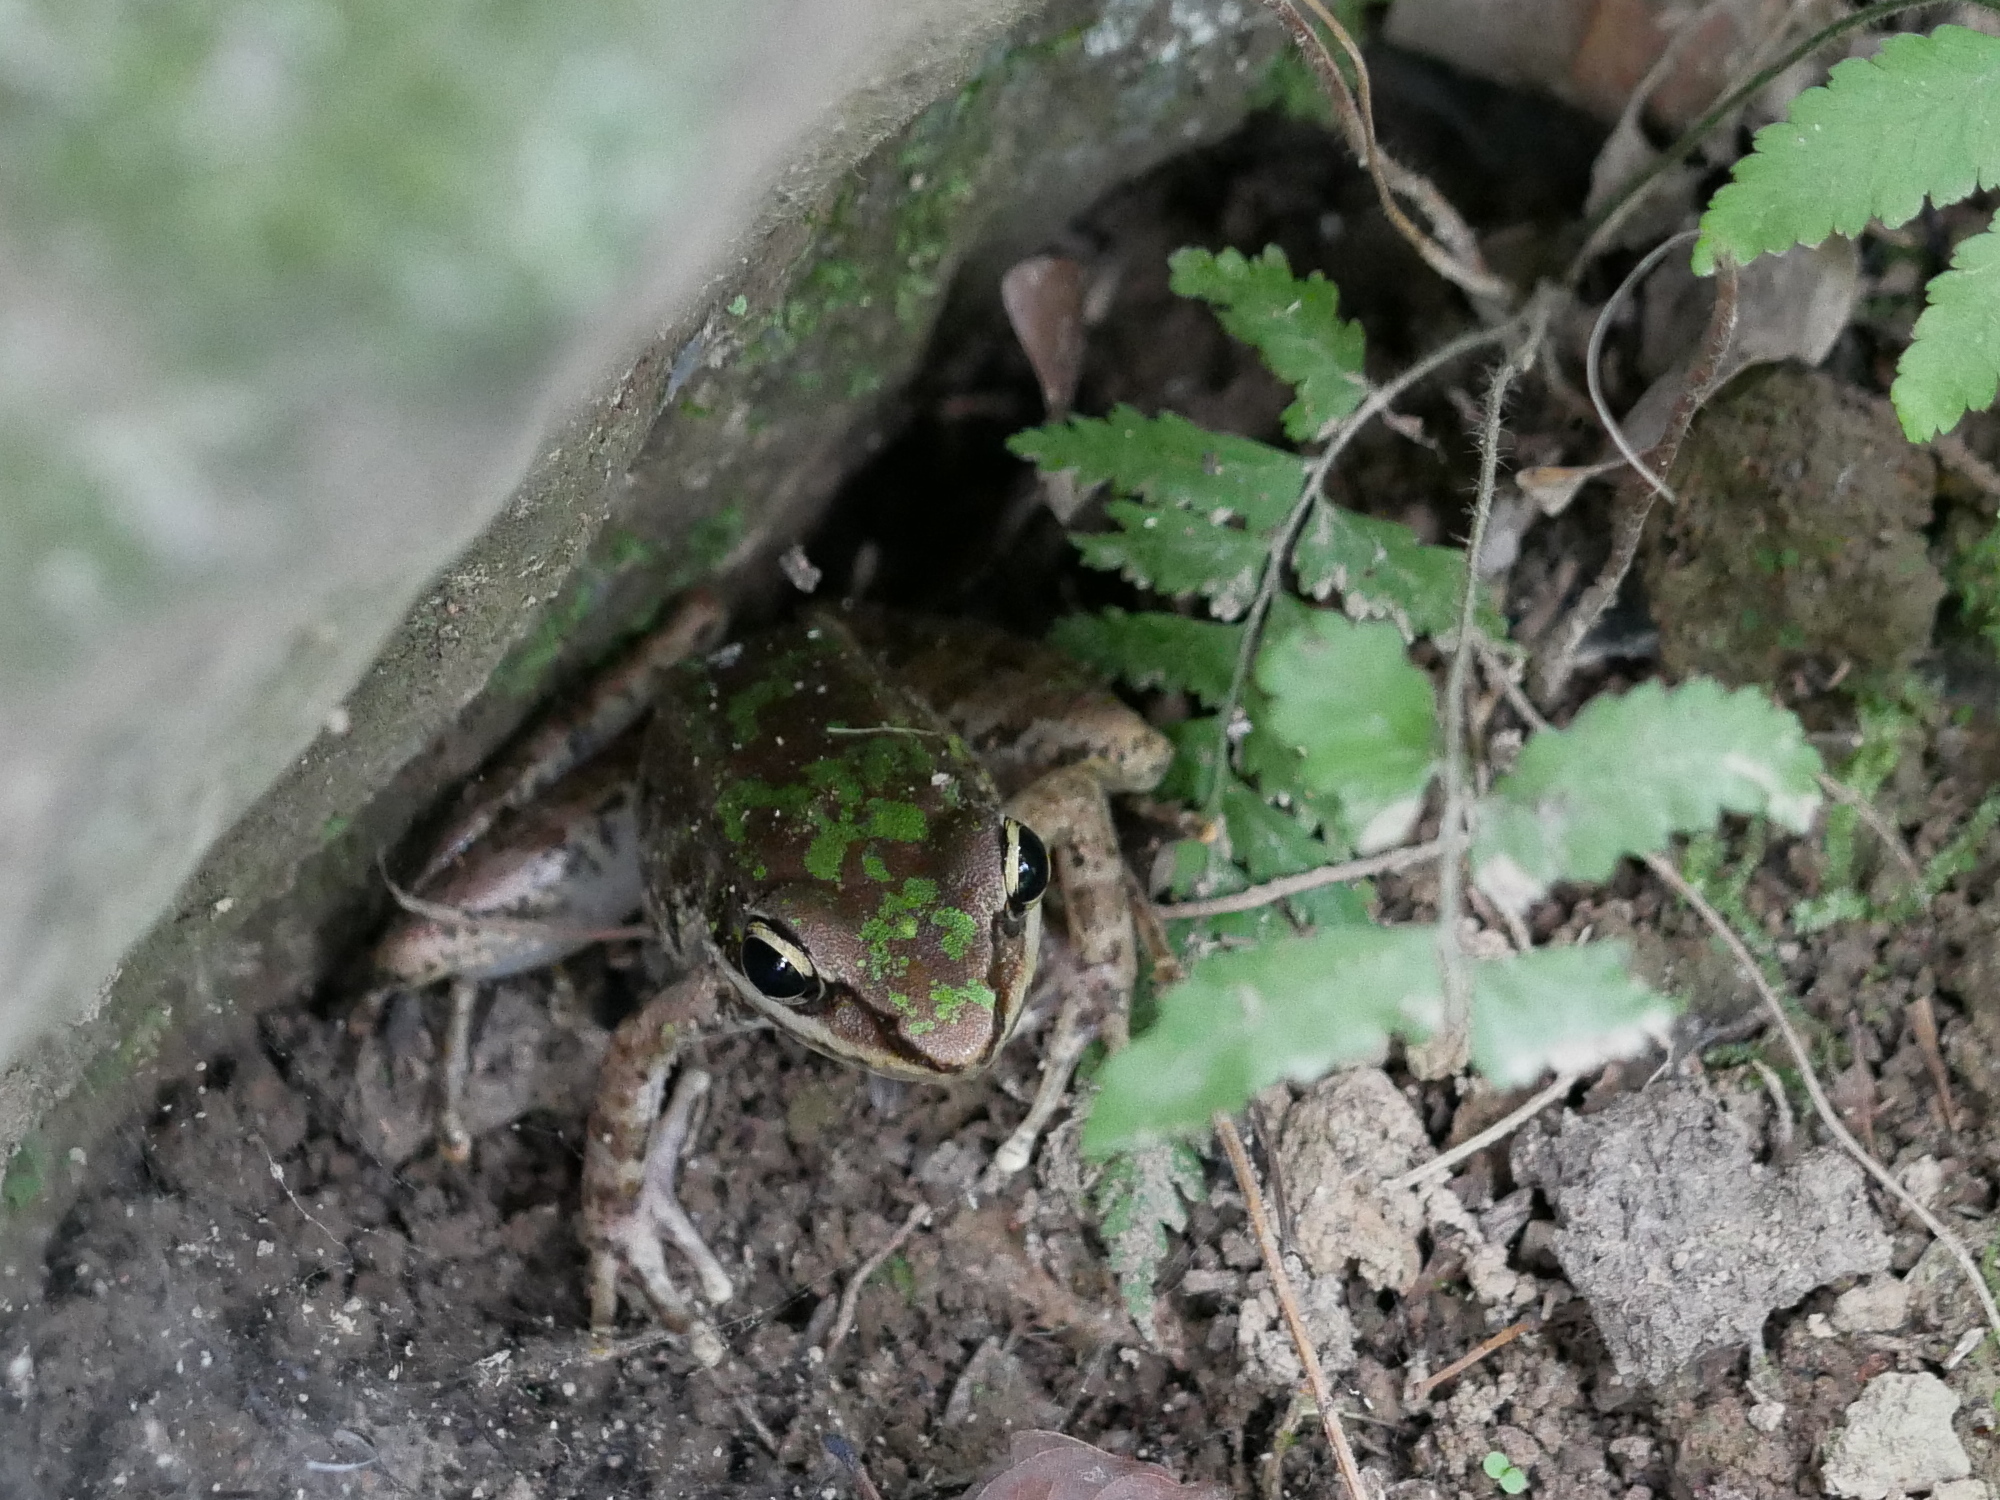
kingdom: Animalia
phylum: Chordata
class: Amphibia
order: Anura
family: Ranidae
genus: Odorrana
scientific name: Odorrana swinhoana
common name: Bangkimtsing frog
